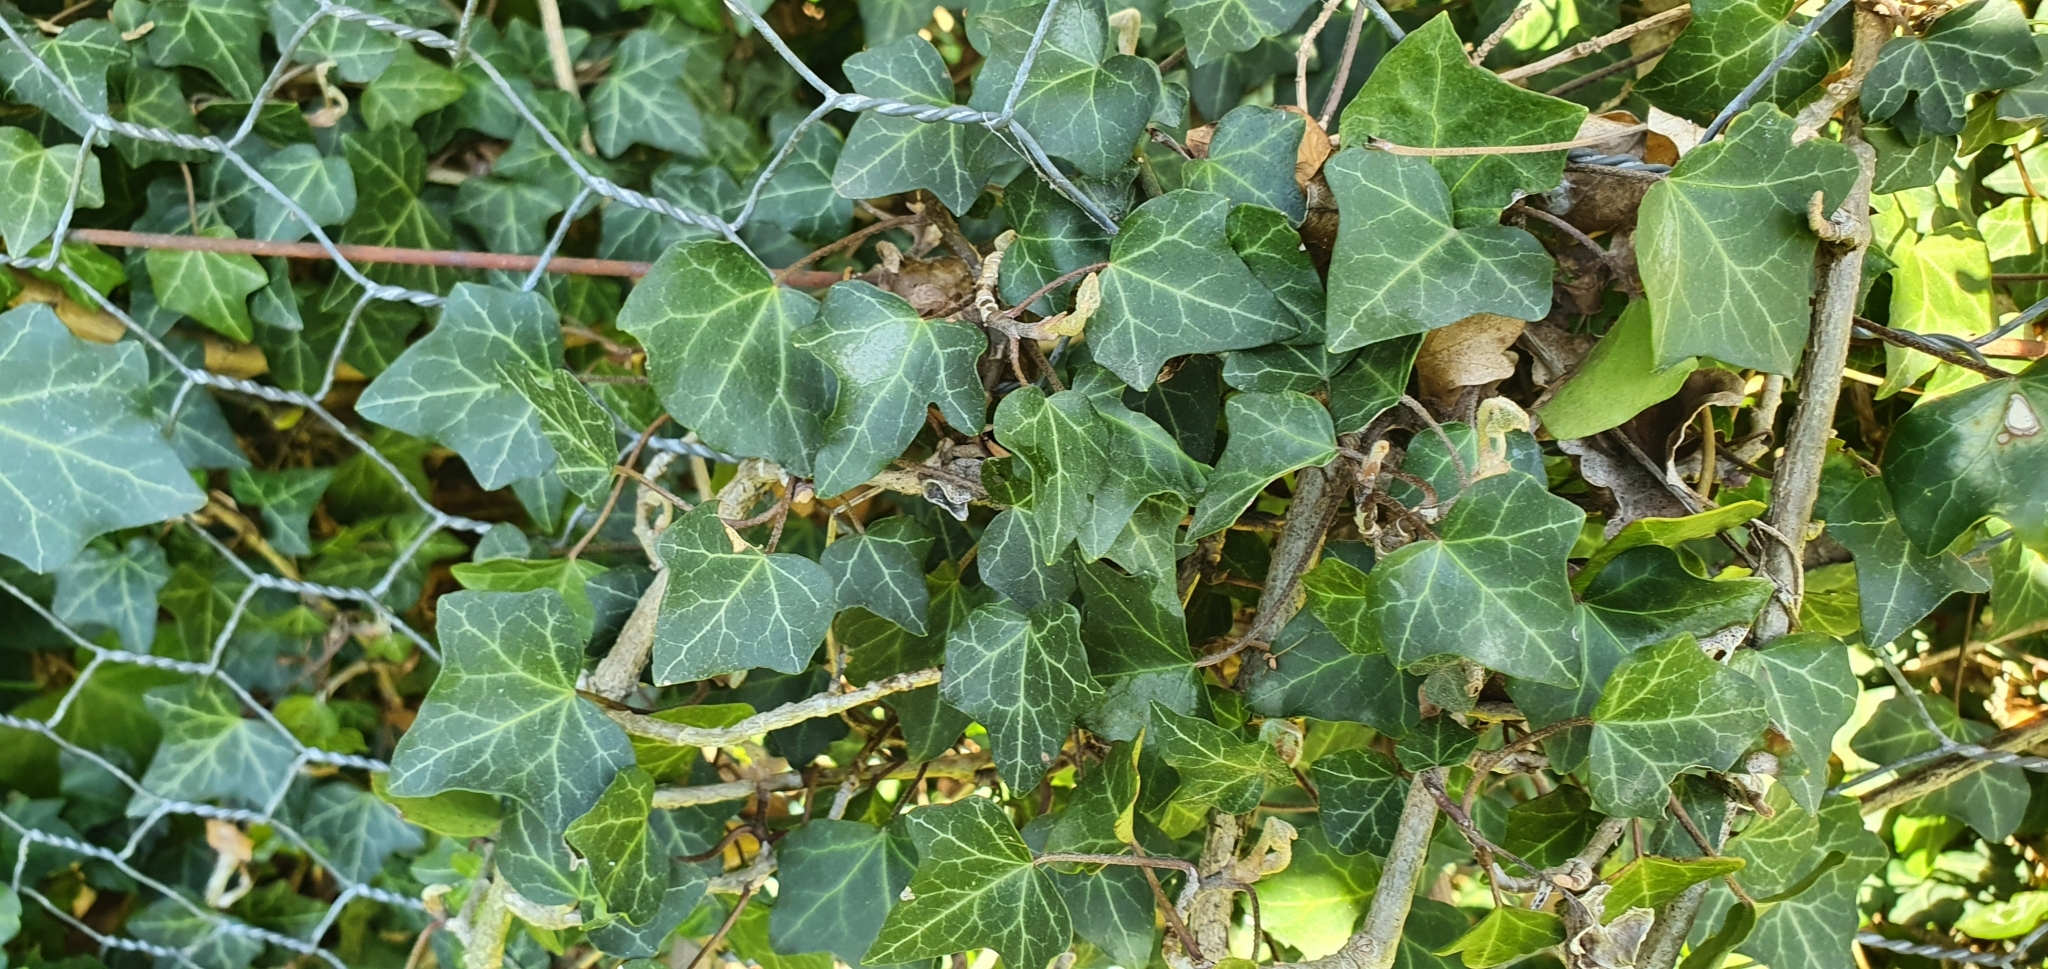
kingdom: Plantae
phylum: Tracheophyta
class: Magnoliopsida
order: Apiales
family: Araliaceae
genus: Hedera
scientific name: Hedera helix
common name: Ivy
